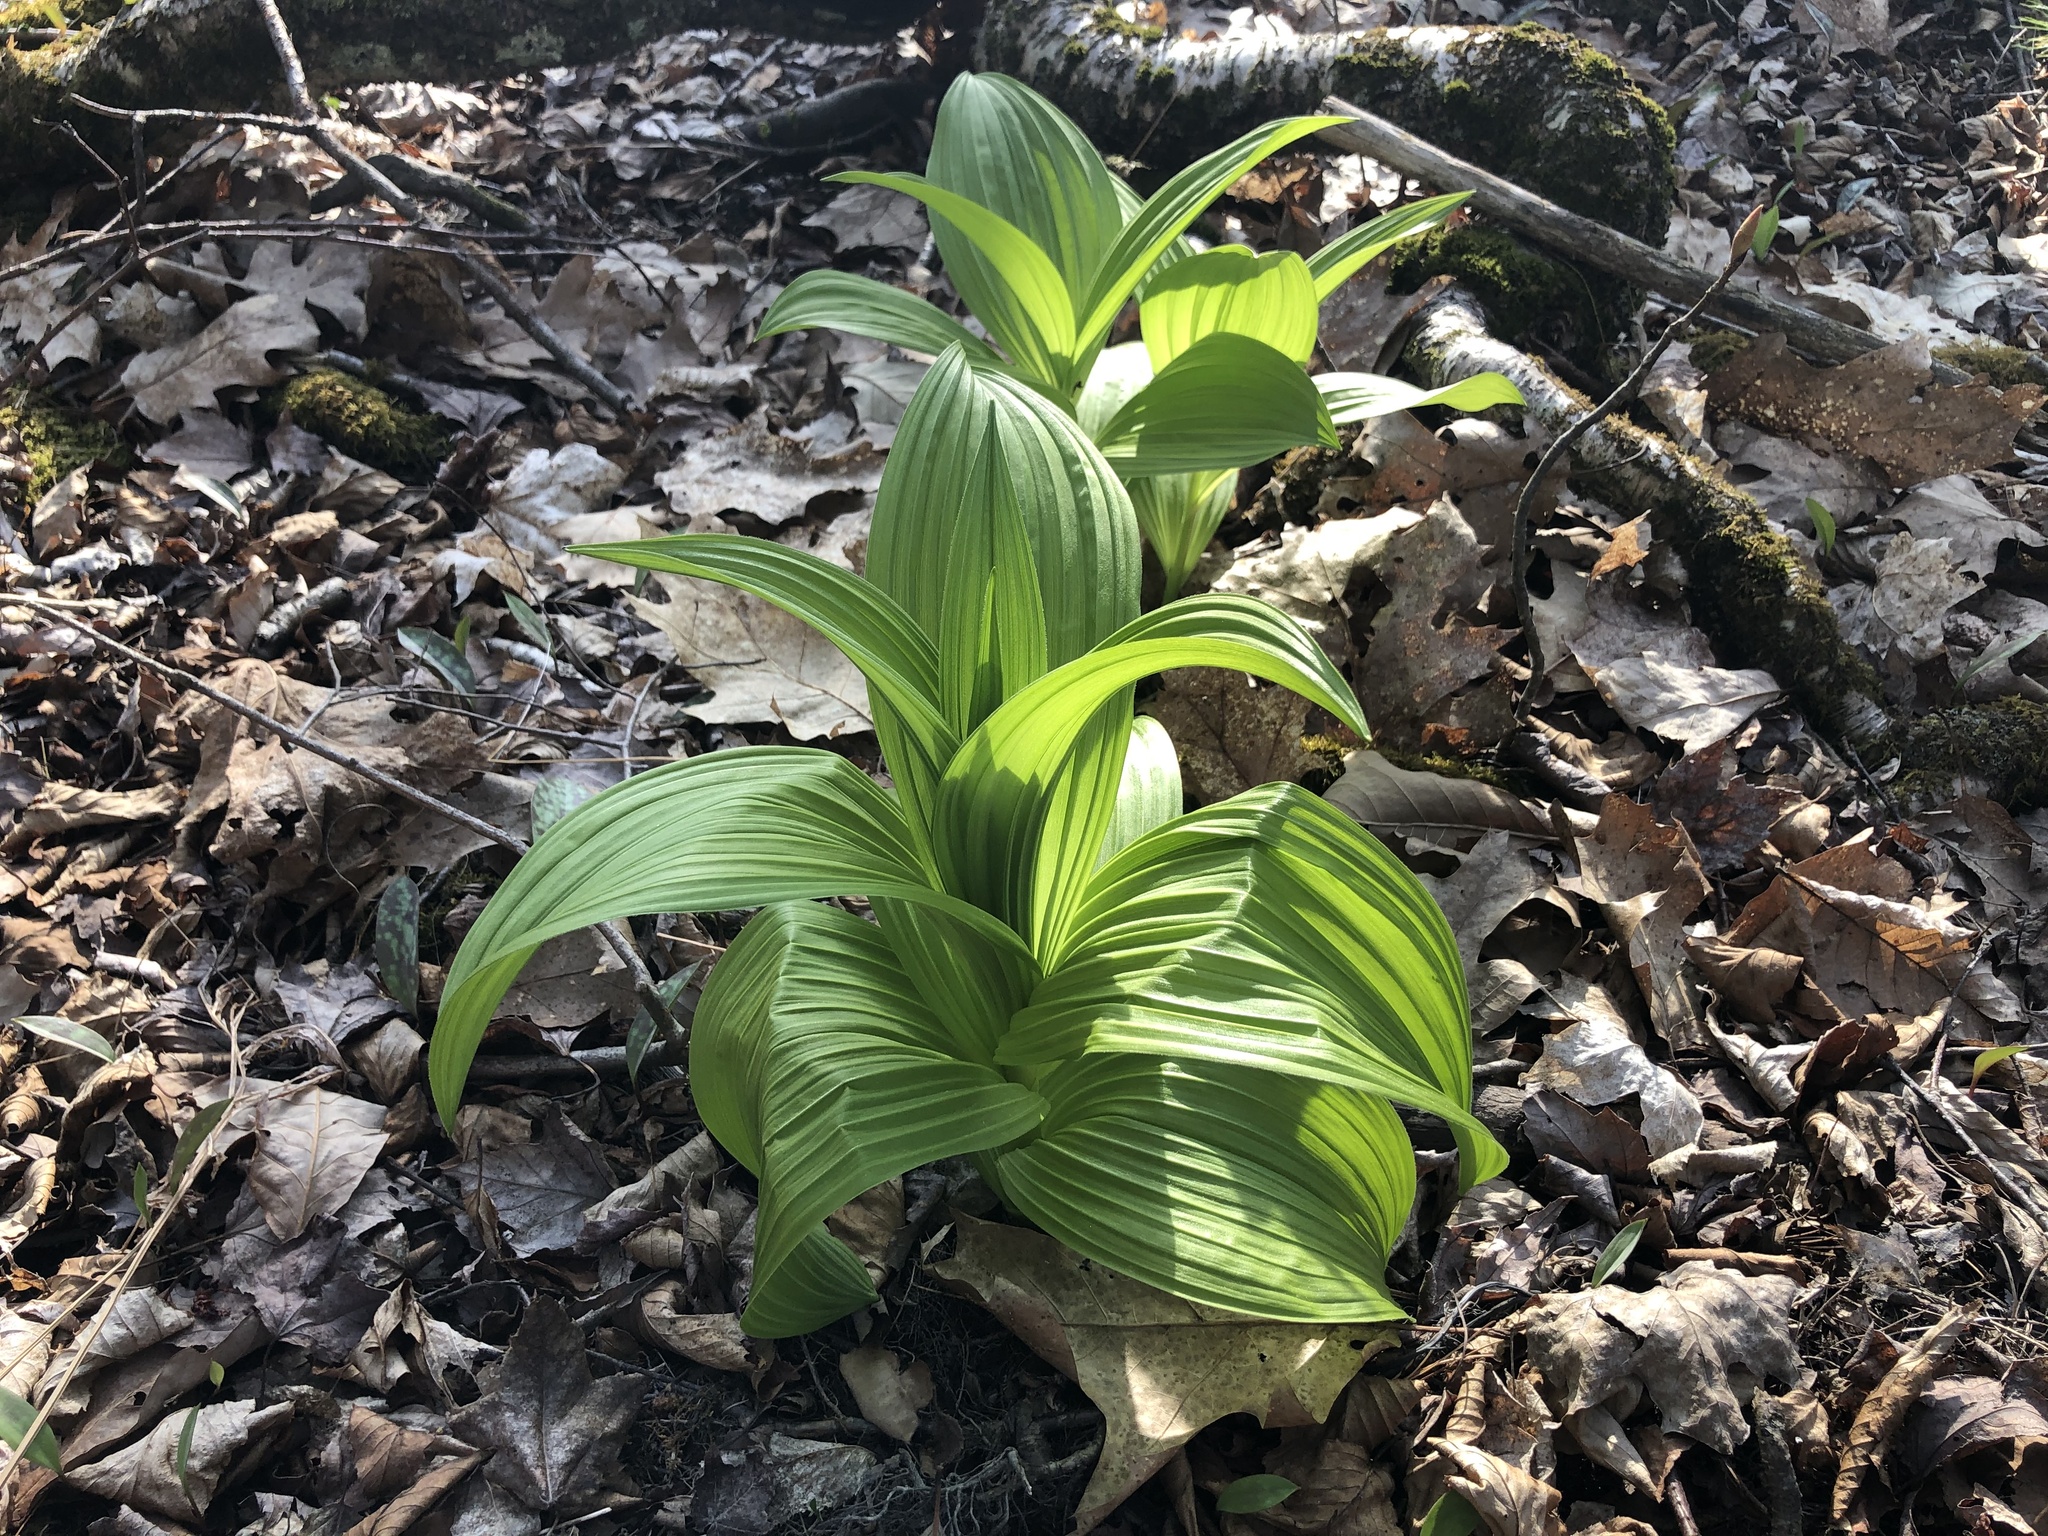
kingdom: Plantae
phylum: Tracheophyta
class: Liliopsida
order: Liliales
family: Melanthiaceae
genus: Veratrum
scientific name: Veratrum viride
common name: American false hellebore
